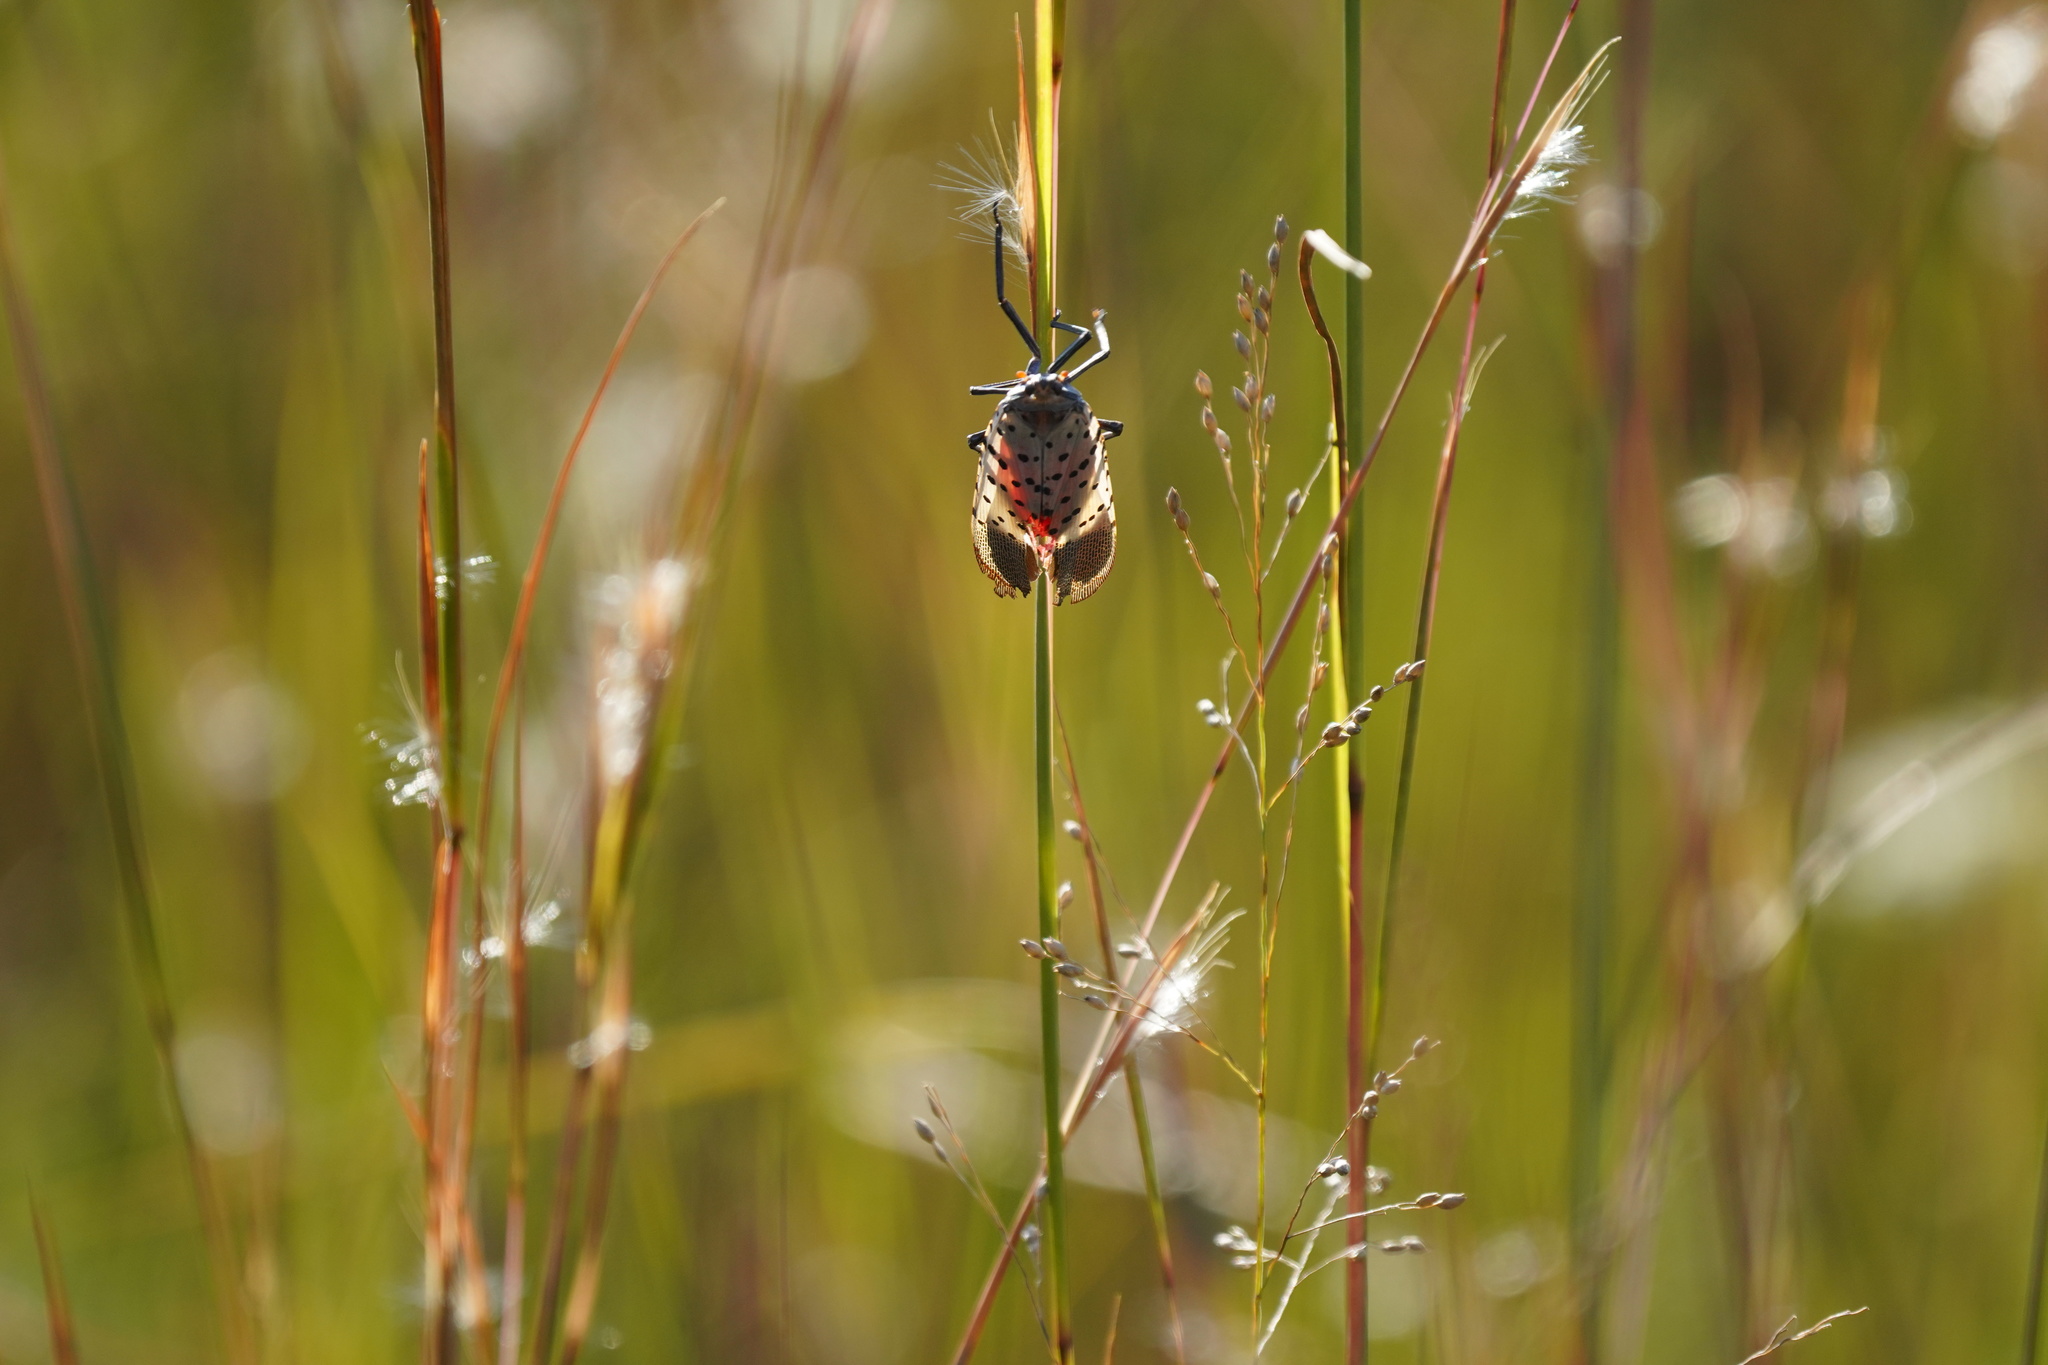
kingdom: Animalia
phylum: Arthropoda
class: Insecta
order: Hemiptera
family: Fulgoridae
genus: Lycorma
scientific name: Lycorma delicatula
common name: Spotted lanternfly
